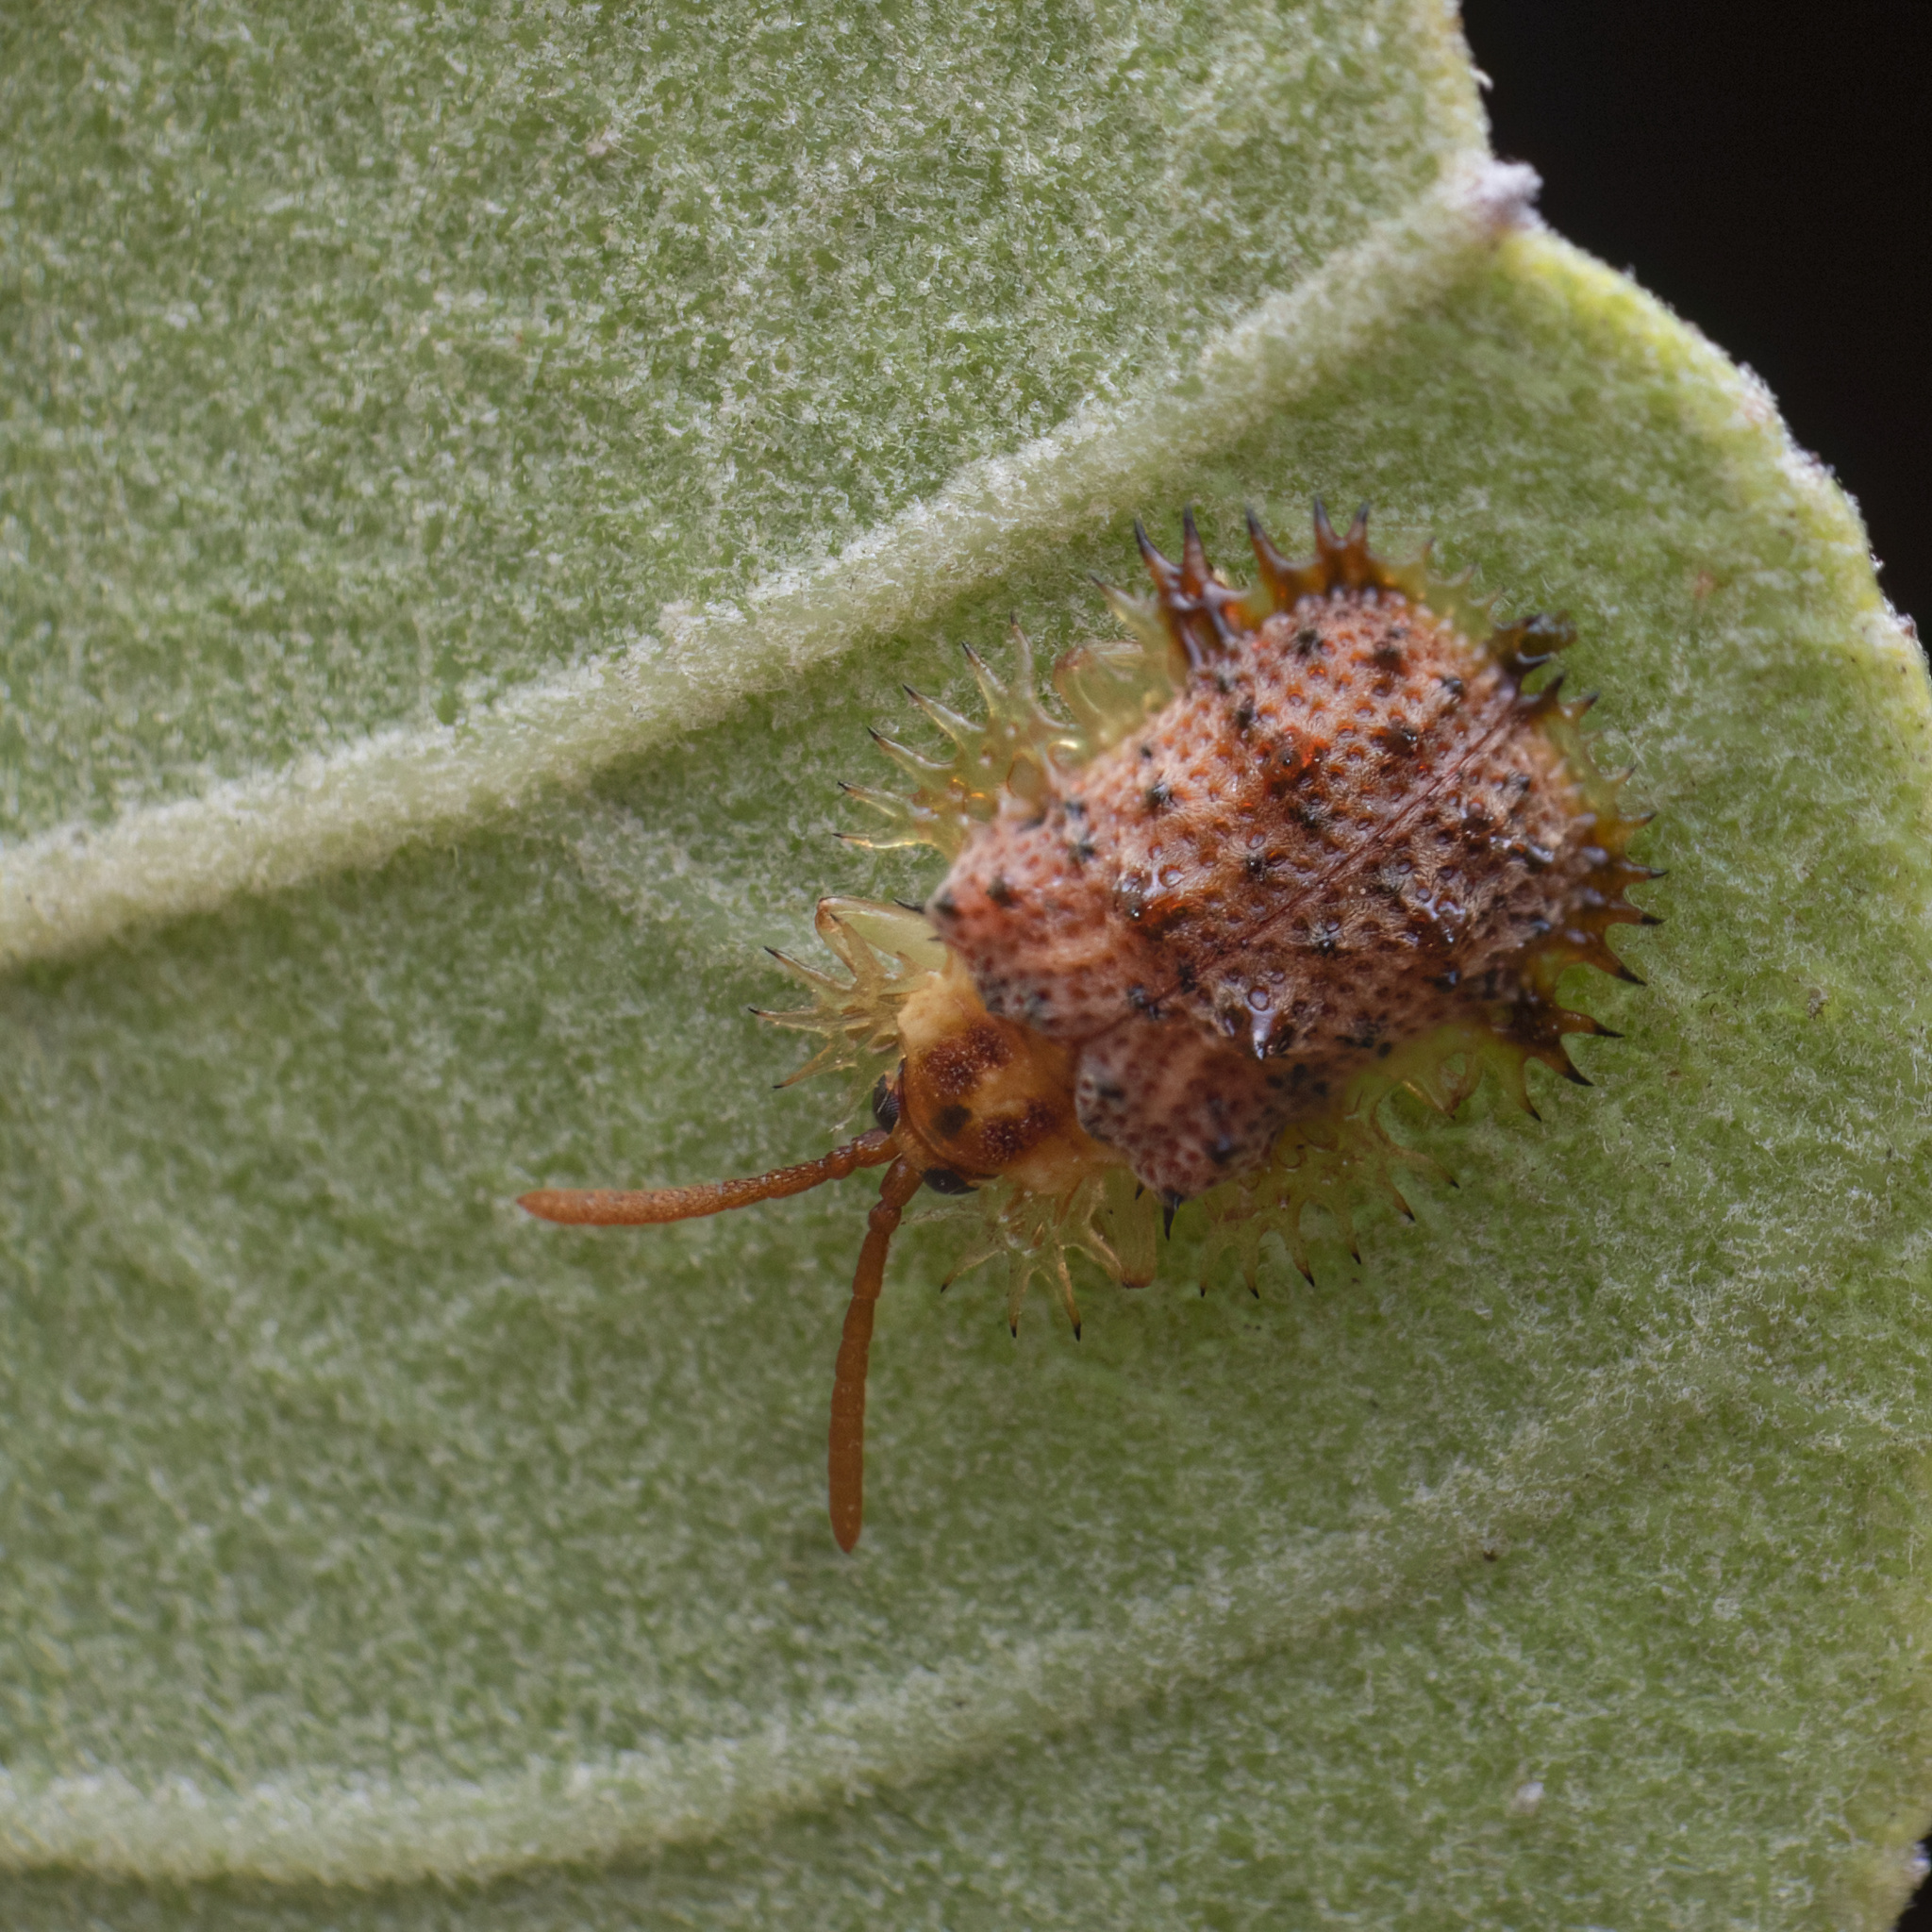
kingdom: Animalia
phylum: Arthropoda
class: Insecta
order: Coleoptera
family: Chrysomelidae
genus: Platypria
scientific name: Platypria erinaceus
